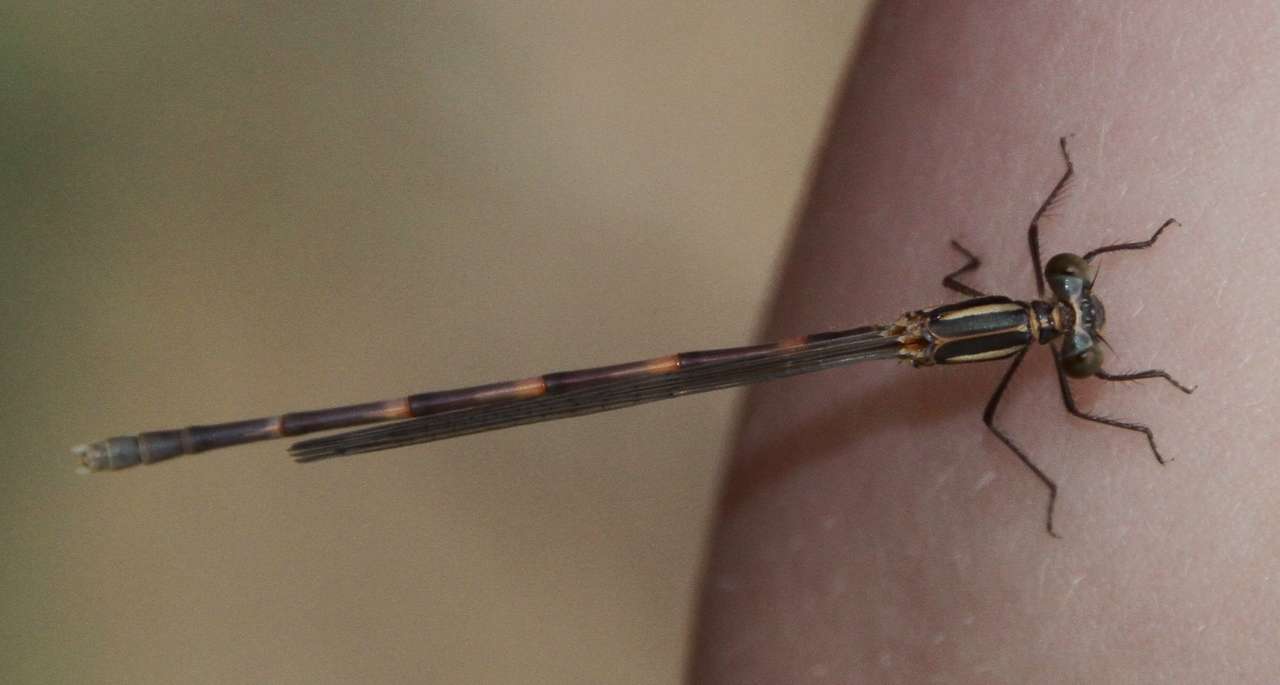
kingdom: Animalia
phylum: Arthropoda
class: Insecta
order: Odonata
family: Lestidae
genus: Austrolestes
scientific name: Austrolestes leda
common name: Wandering ringtail
